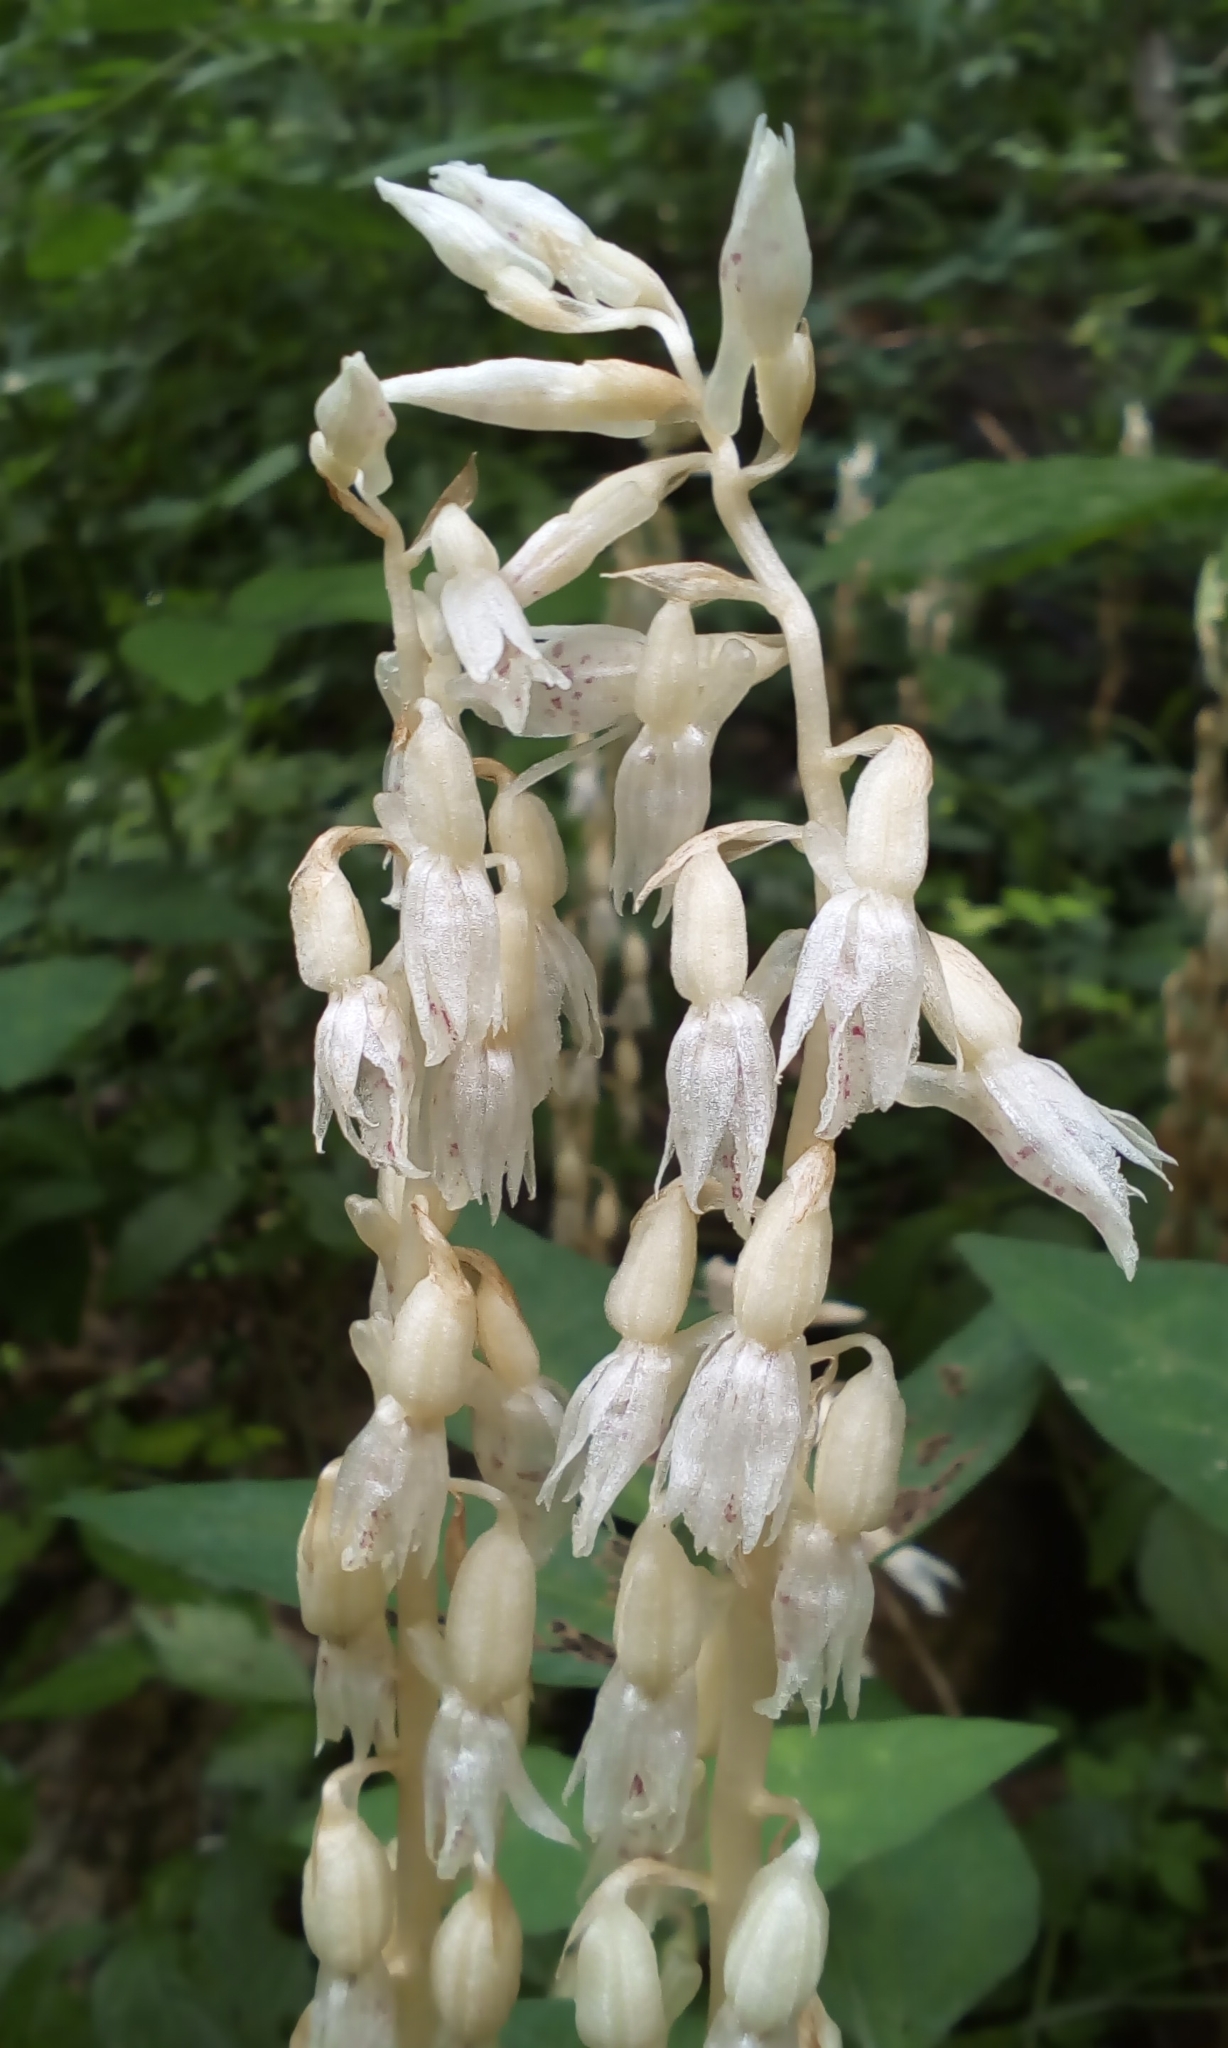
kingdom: Plantae
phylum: Tracheophyta
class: Liliopsida
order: Asparagales
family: Orchidaceae
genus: Epipogium
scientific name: Epipogium roseum
